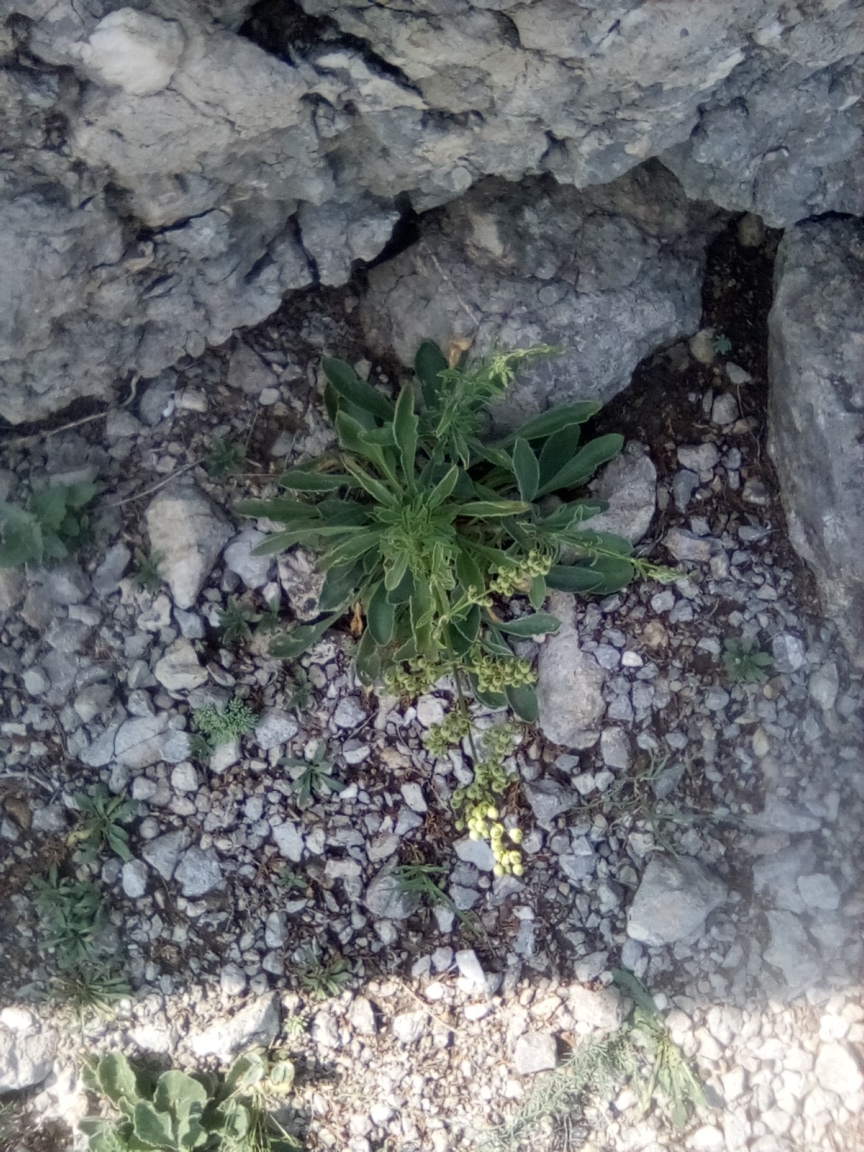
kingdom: Plantae
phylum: Tracheophyta
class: Magnoliopsida
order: Caryophyllales
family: Caryophyllaceae
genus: Silene
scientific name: Silene densiflora
